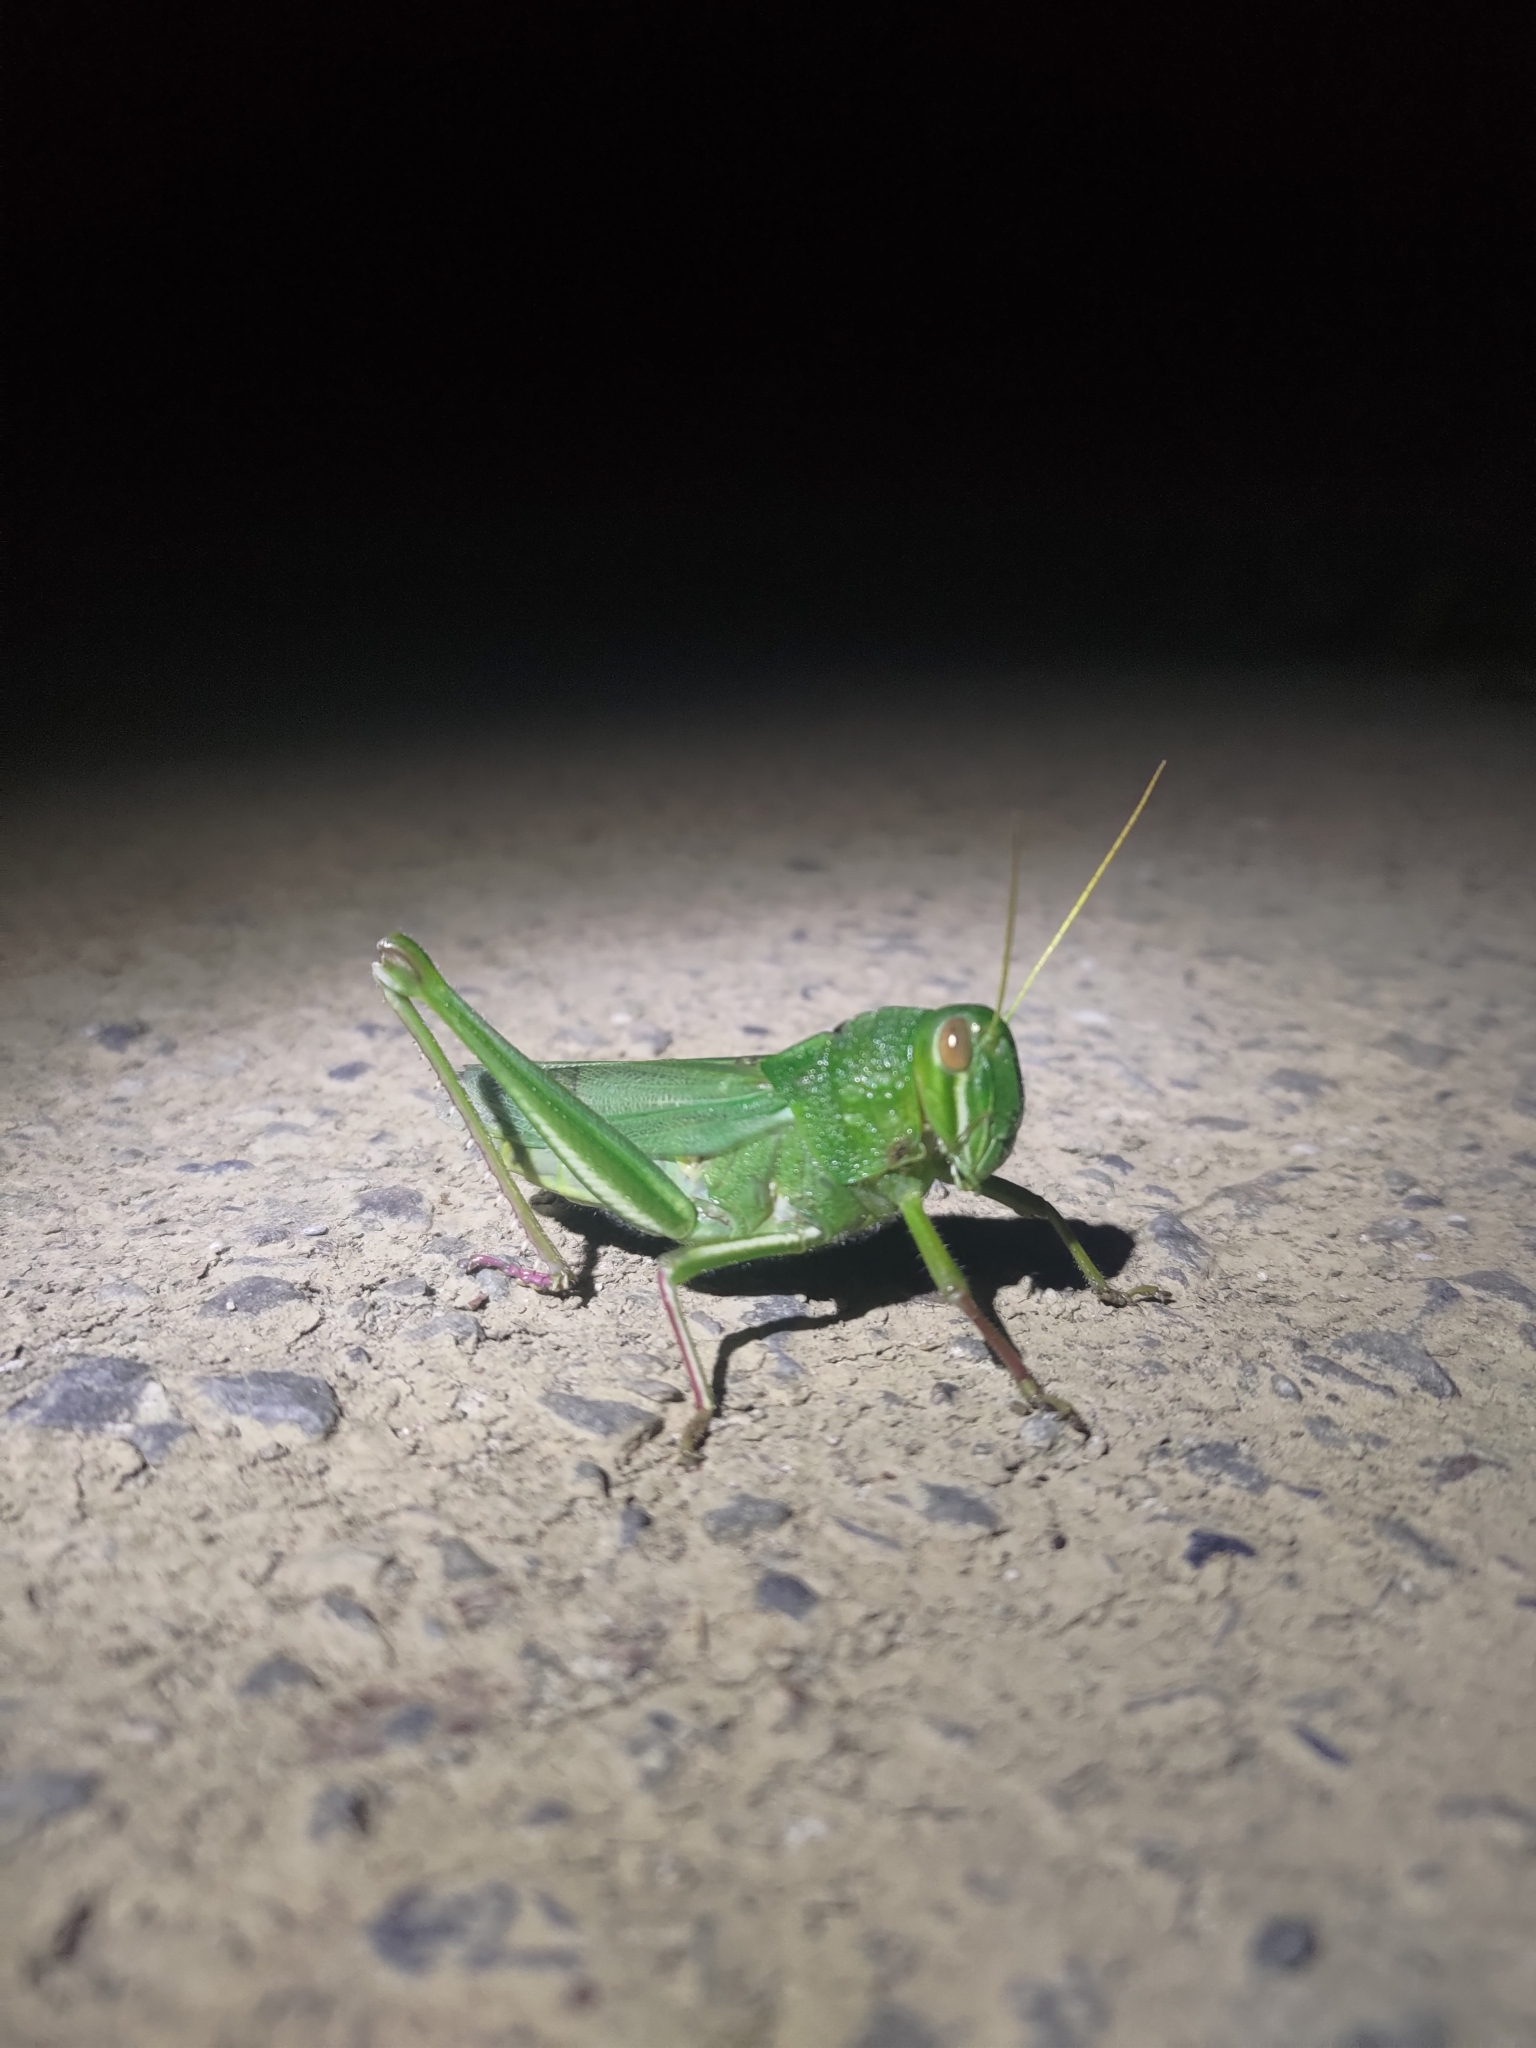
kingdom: Animalia
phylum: Arthropoda
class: Insecta
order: Orthoptera
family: Acrididae
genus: Chondracris
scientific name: Chondracris rosea
